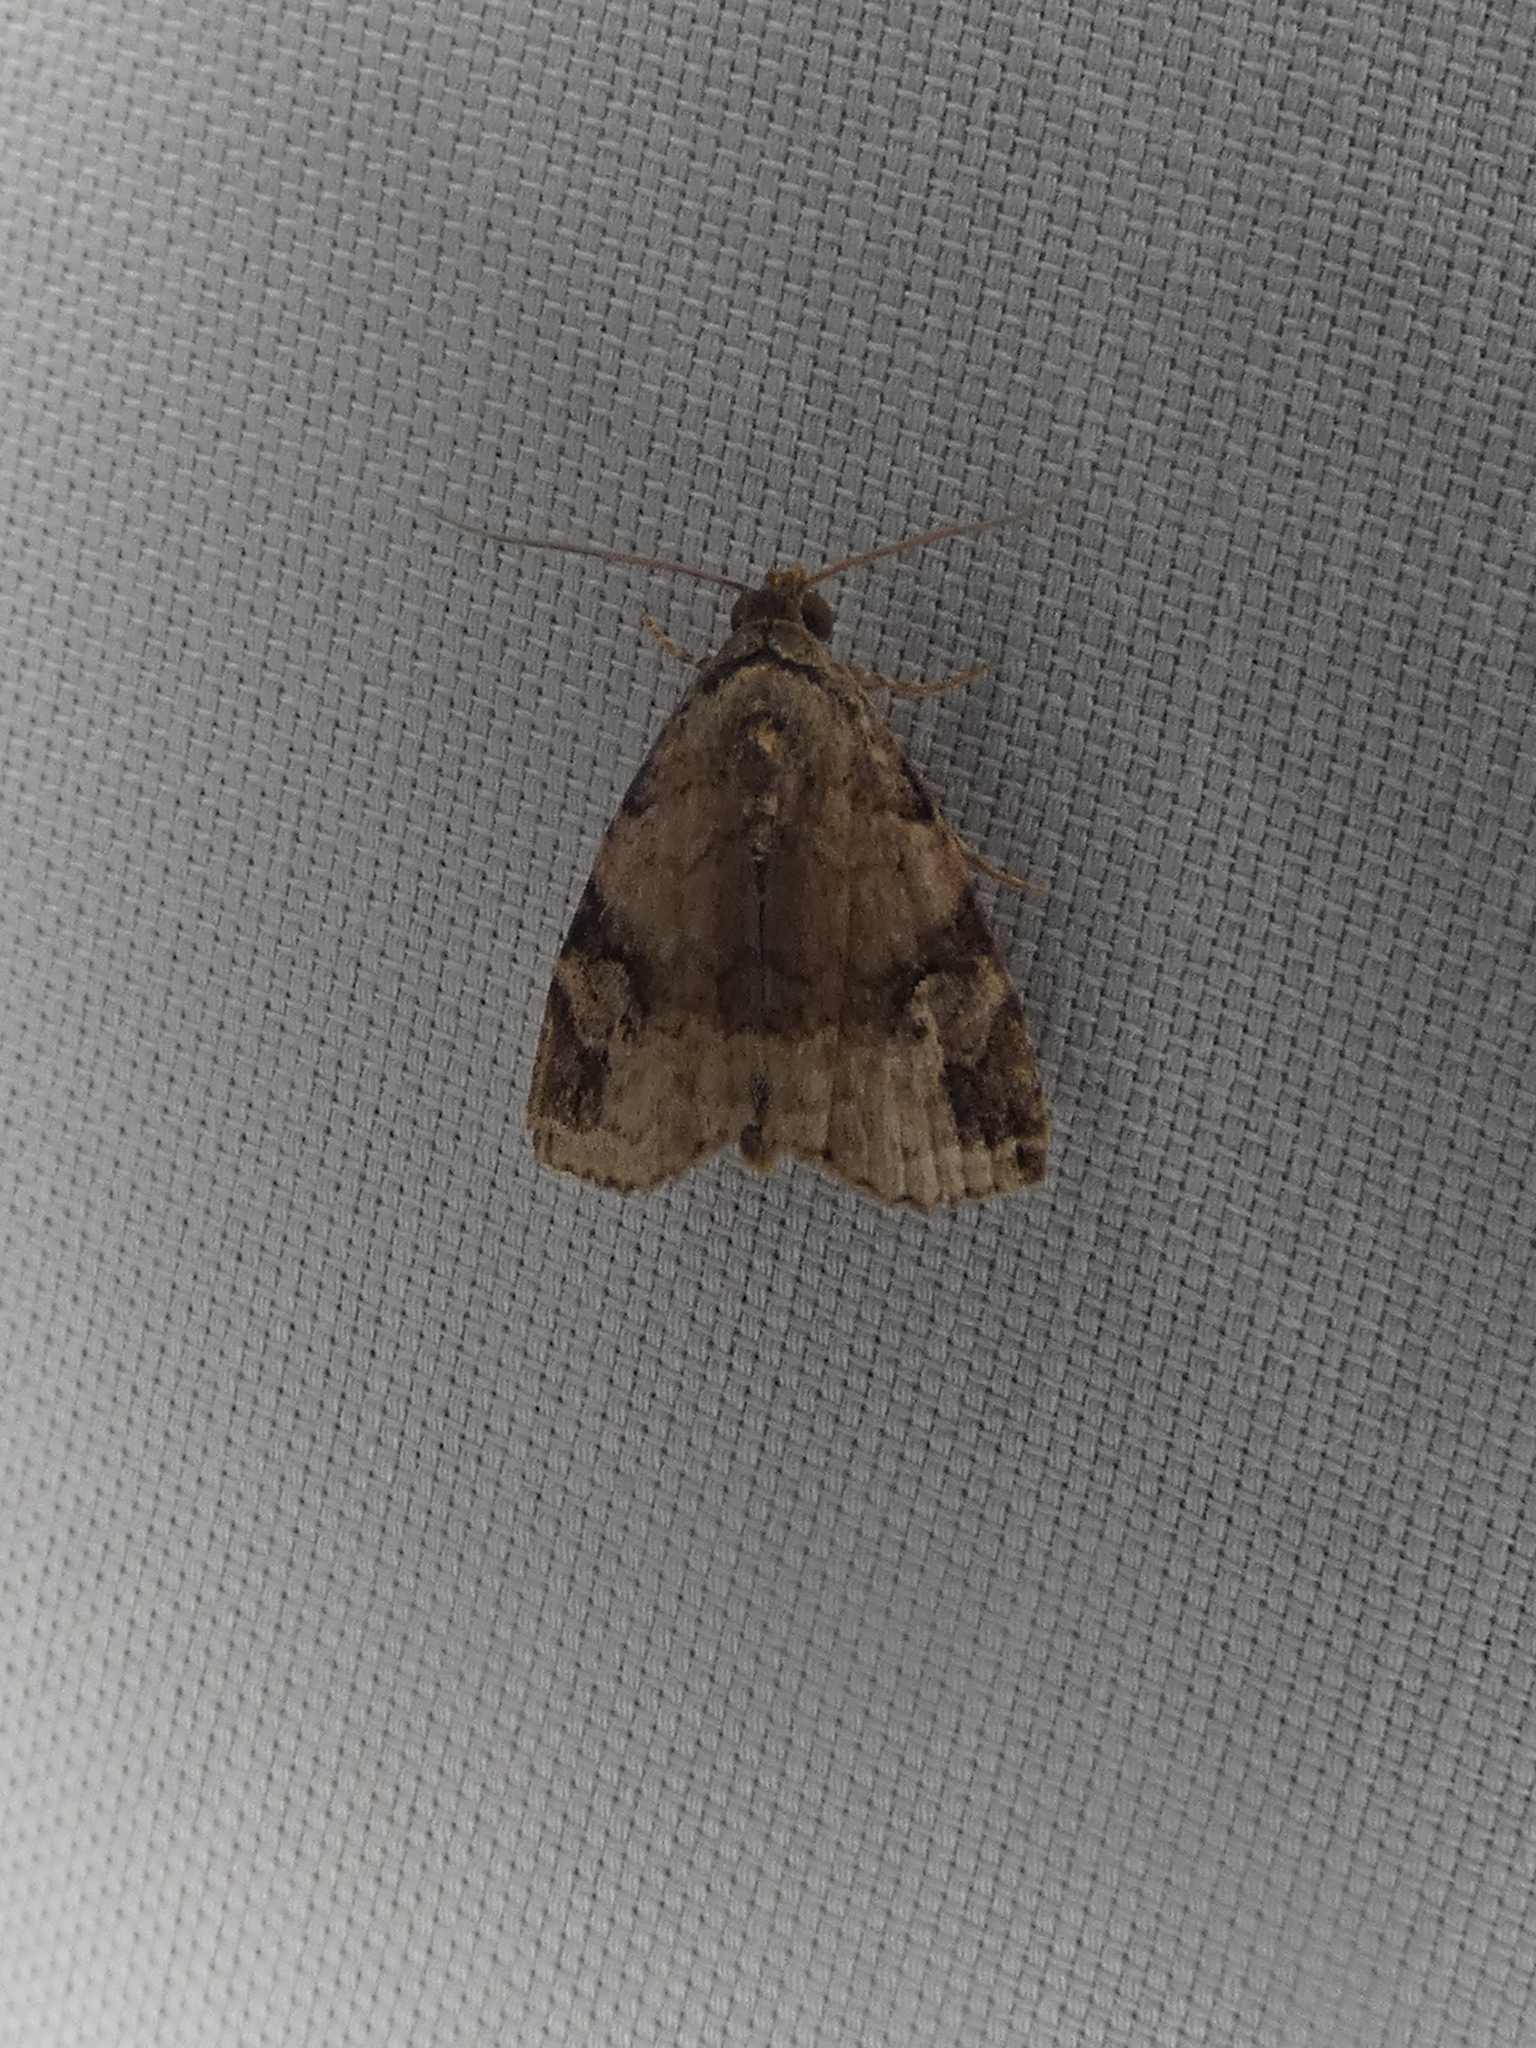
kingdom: Animalia
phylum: Arthropoda
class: Insecta
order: Lepidoptera
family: Noctuidae
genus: Ozarba
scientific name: Ozarba aeria
